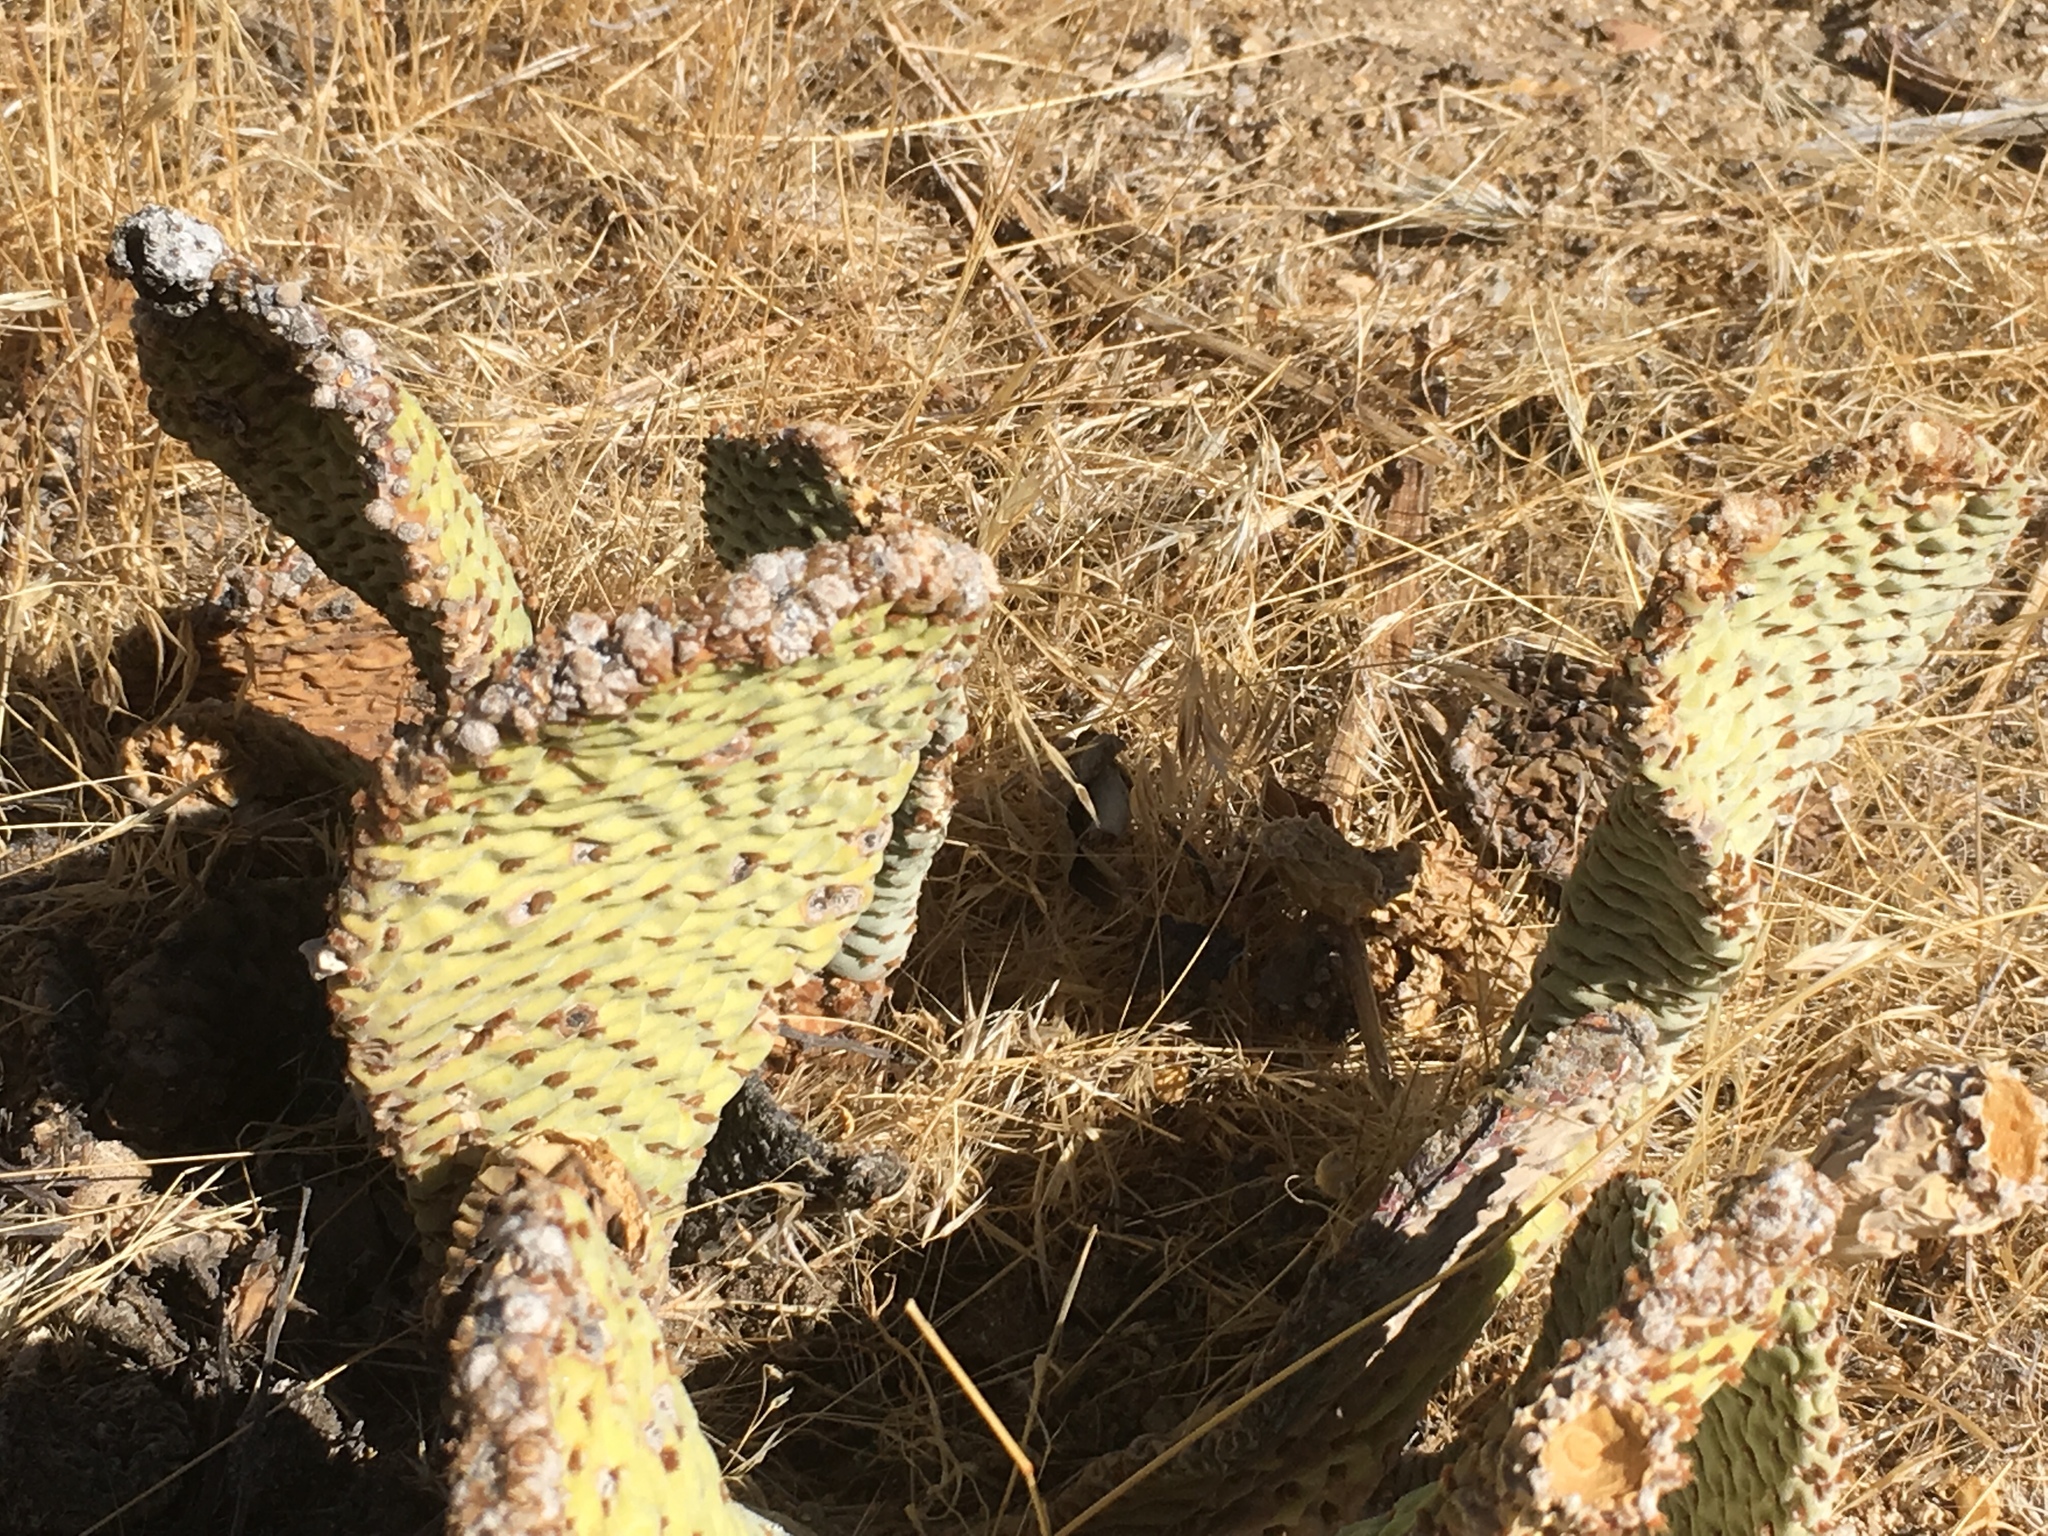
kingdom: Plantae
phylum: Tracheophyta
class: Magnoliopsida
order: Caryophyllales
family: Cactaceae
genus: Opuntia
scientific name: Opuntia basilaris
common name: Beavertail prickly-pear
